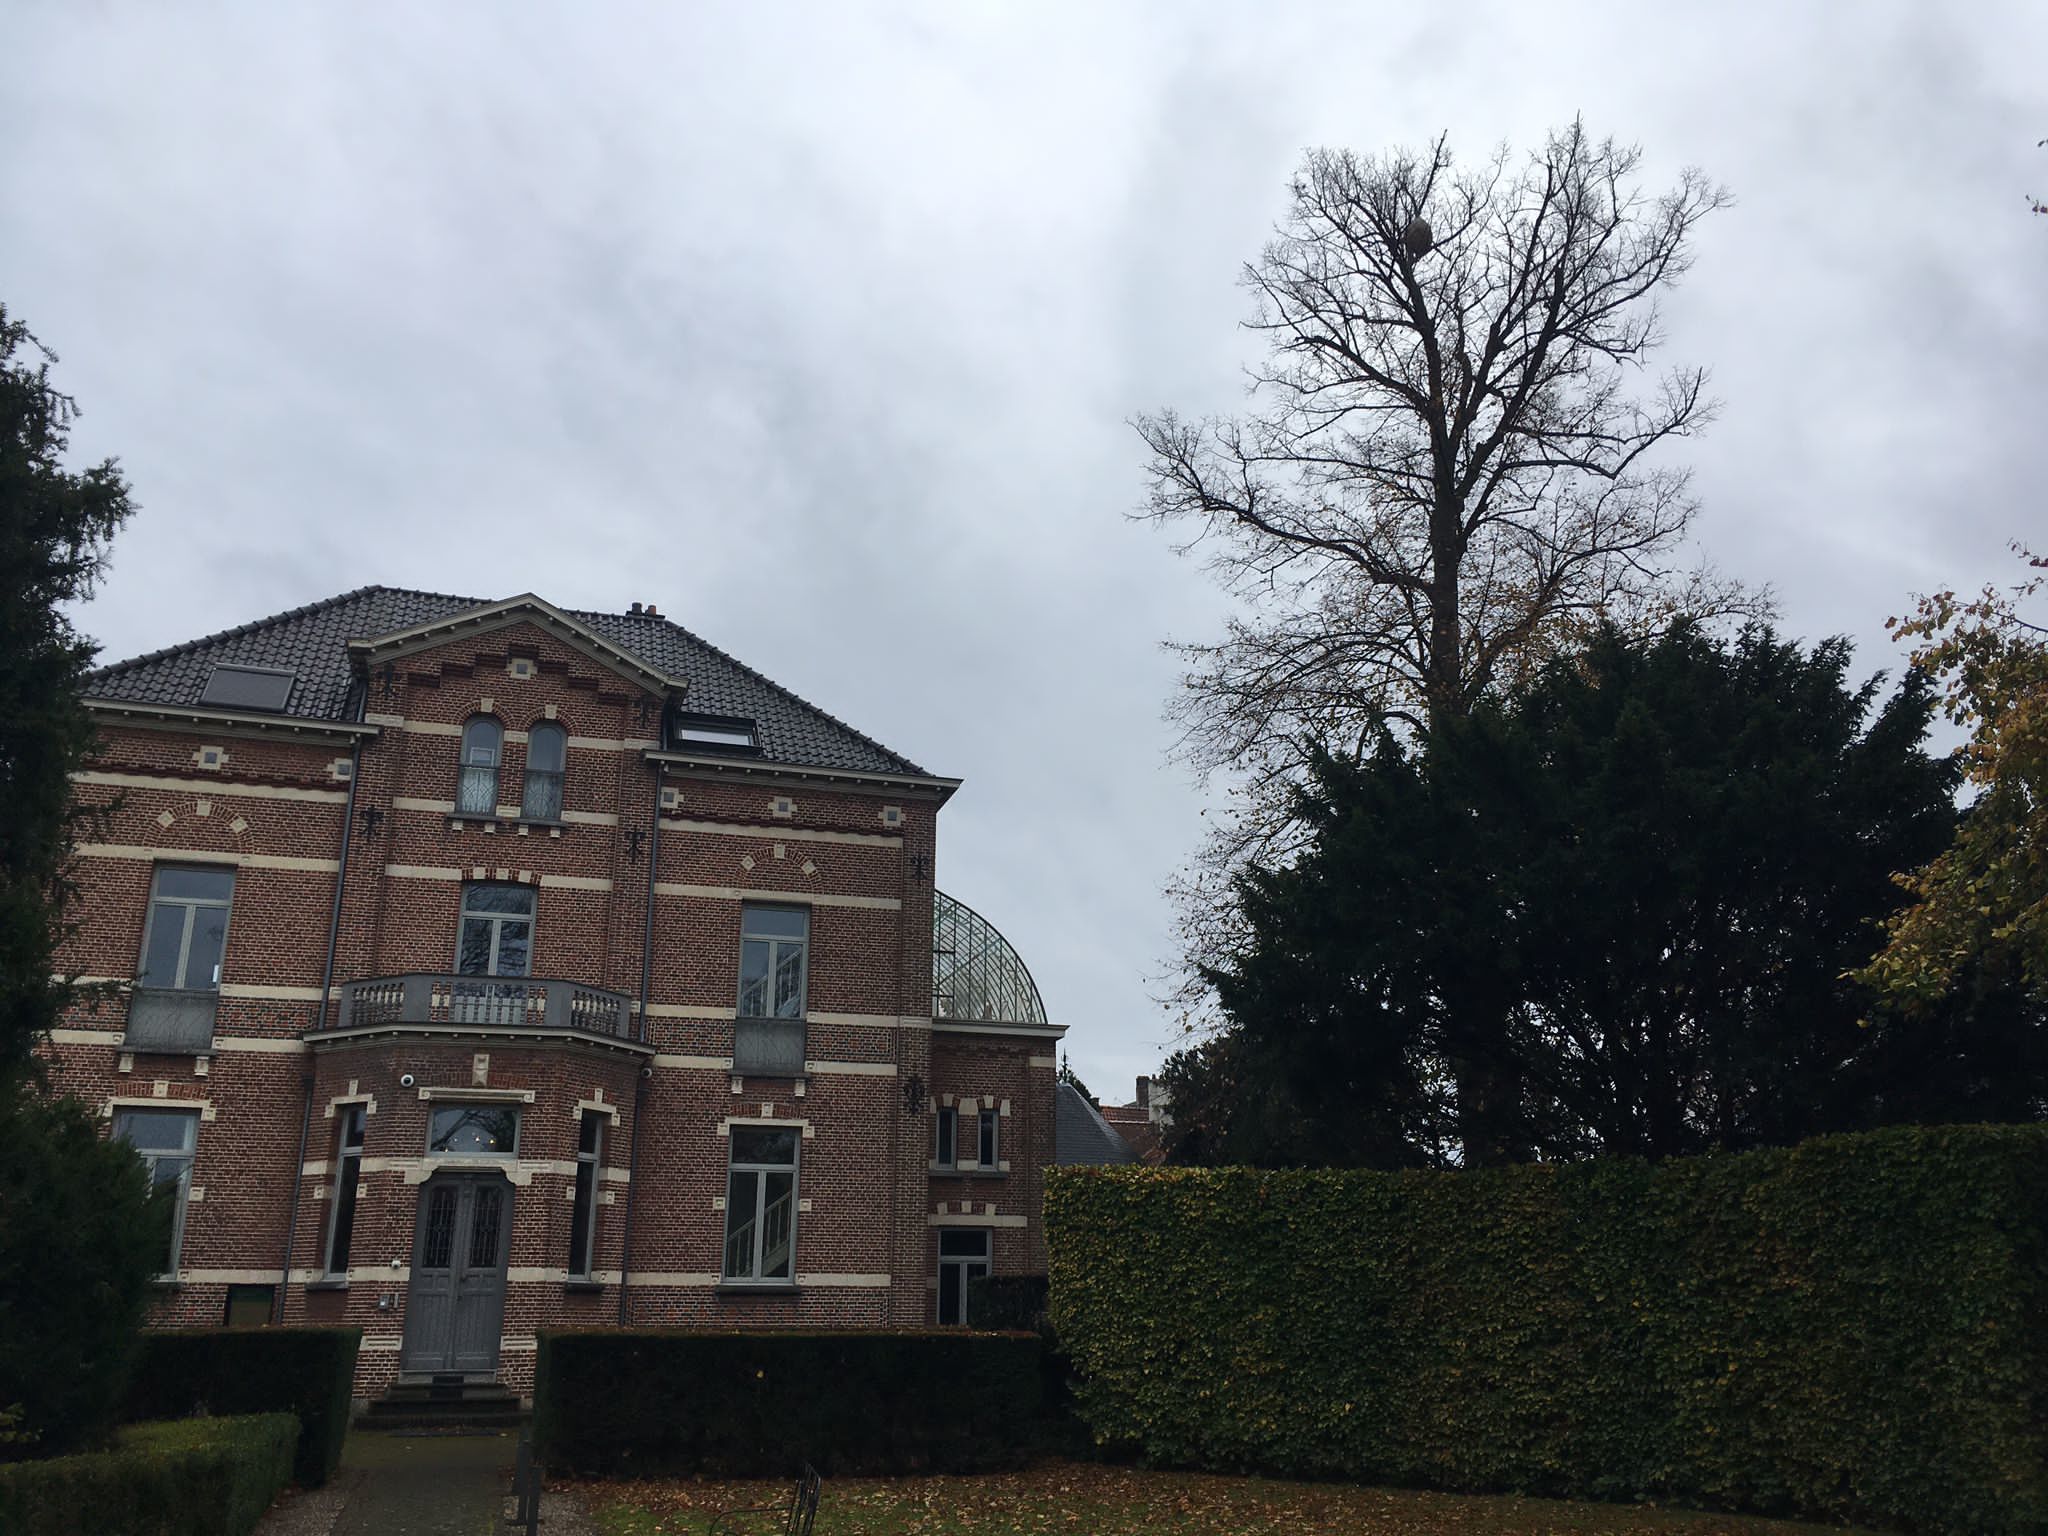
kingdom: Animalia
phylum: Arthropoda
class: Insecta
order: Hymenoptera
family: Vespidae
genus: Vespa
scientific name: Vespa velutina
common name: Asian hornet
